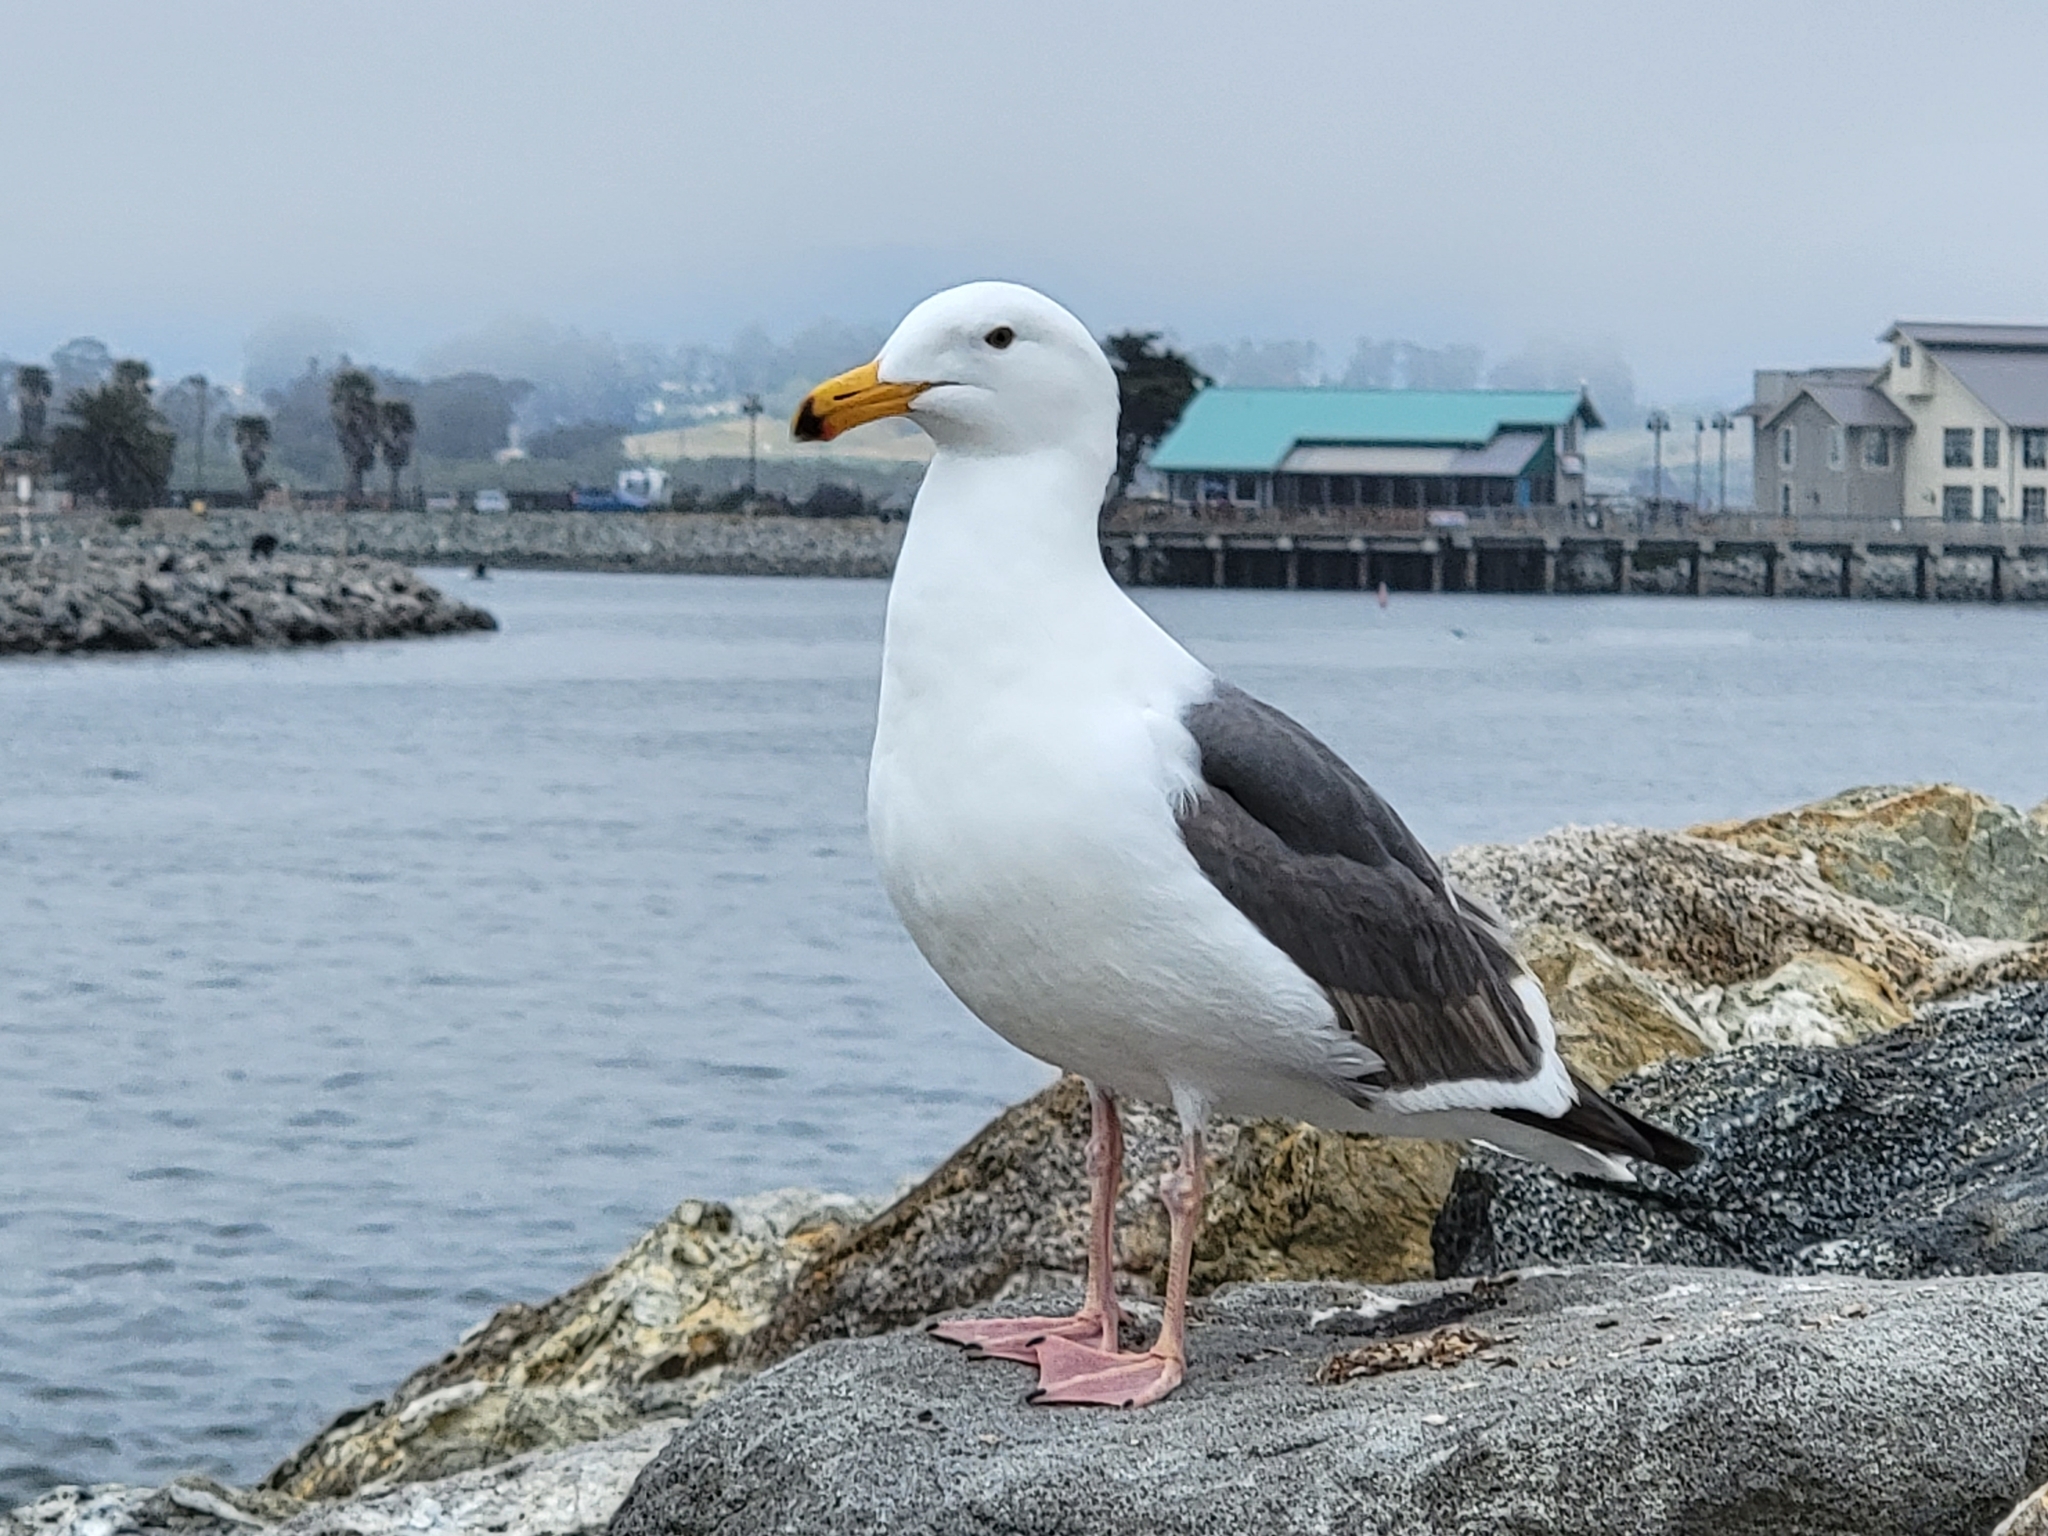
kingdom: Animalia
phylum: Chordata
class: Aves
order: Charadriiformes
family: Laridae
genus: Larus
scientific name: Larus occidentalis
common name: Western gull
